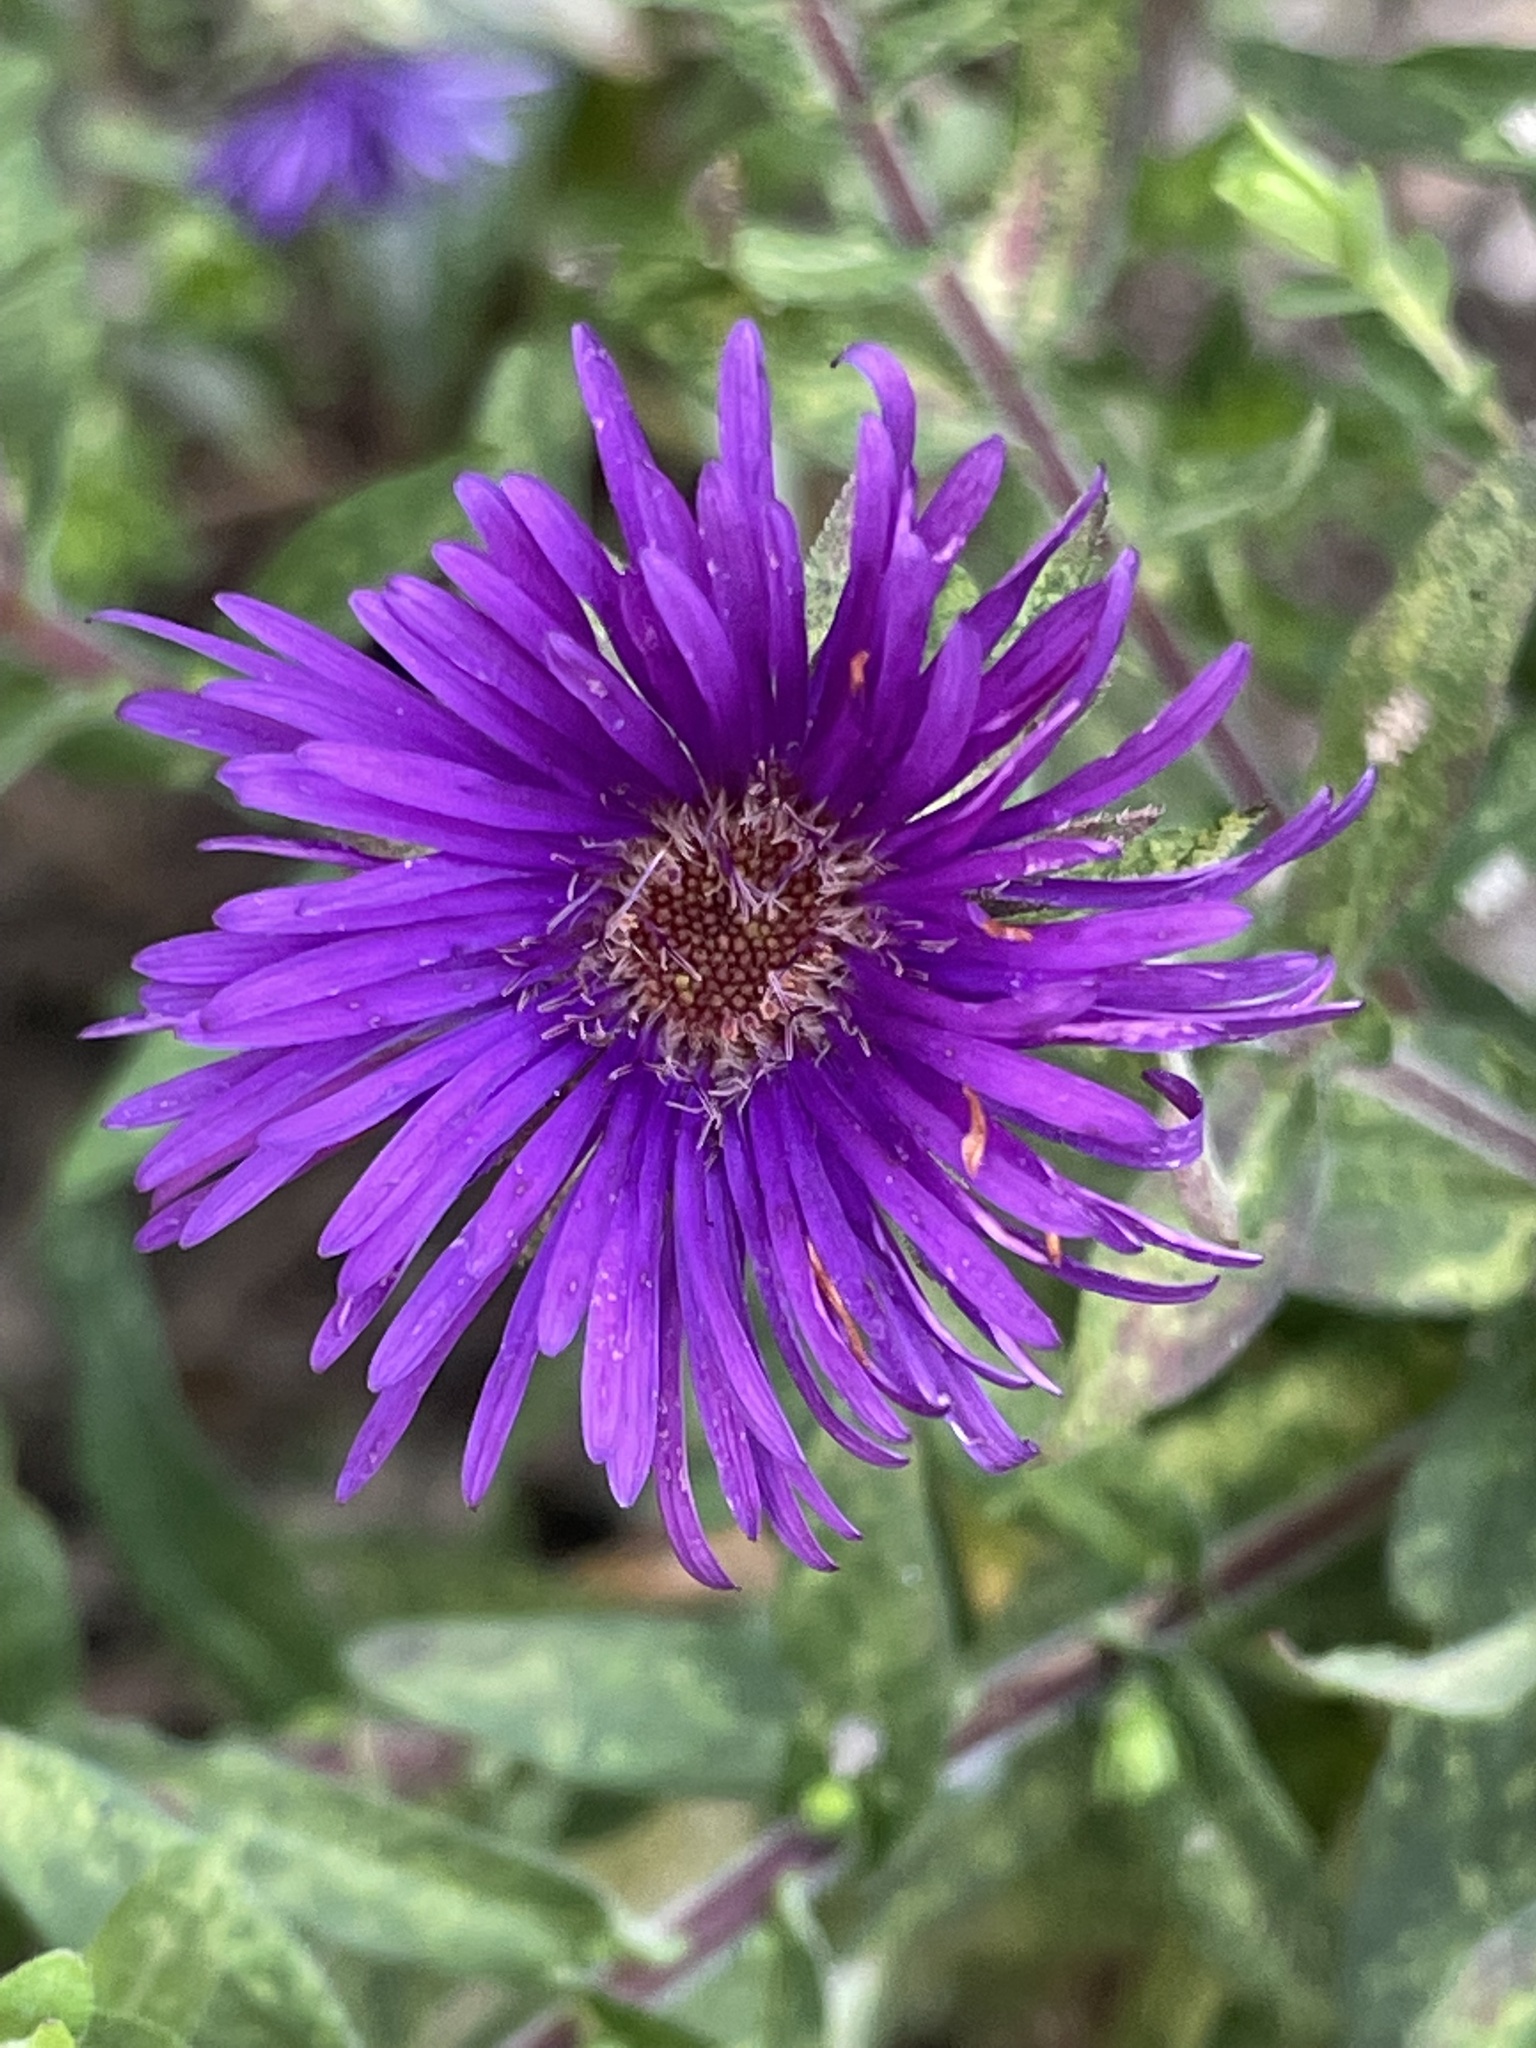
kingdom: Plantae
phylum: Tracheophyta
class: Magnoliopsida
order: Asterales
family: Asteraceae
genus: Symphyotrichum
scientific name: Symphyotrichum novae-angliae
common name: Michaelmas daisy
